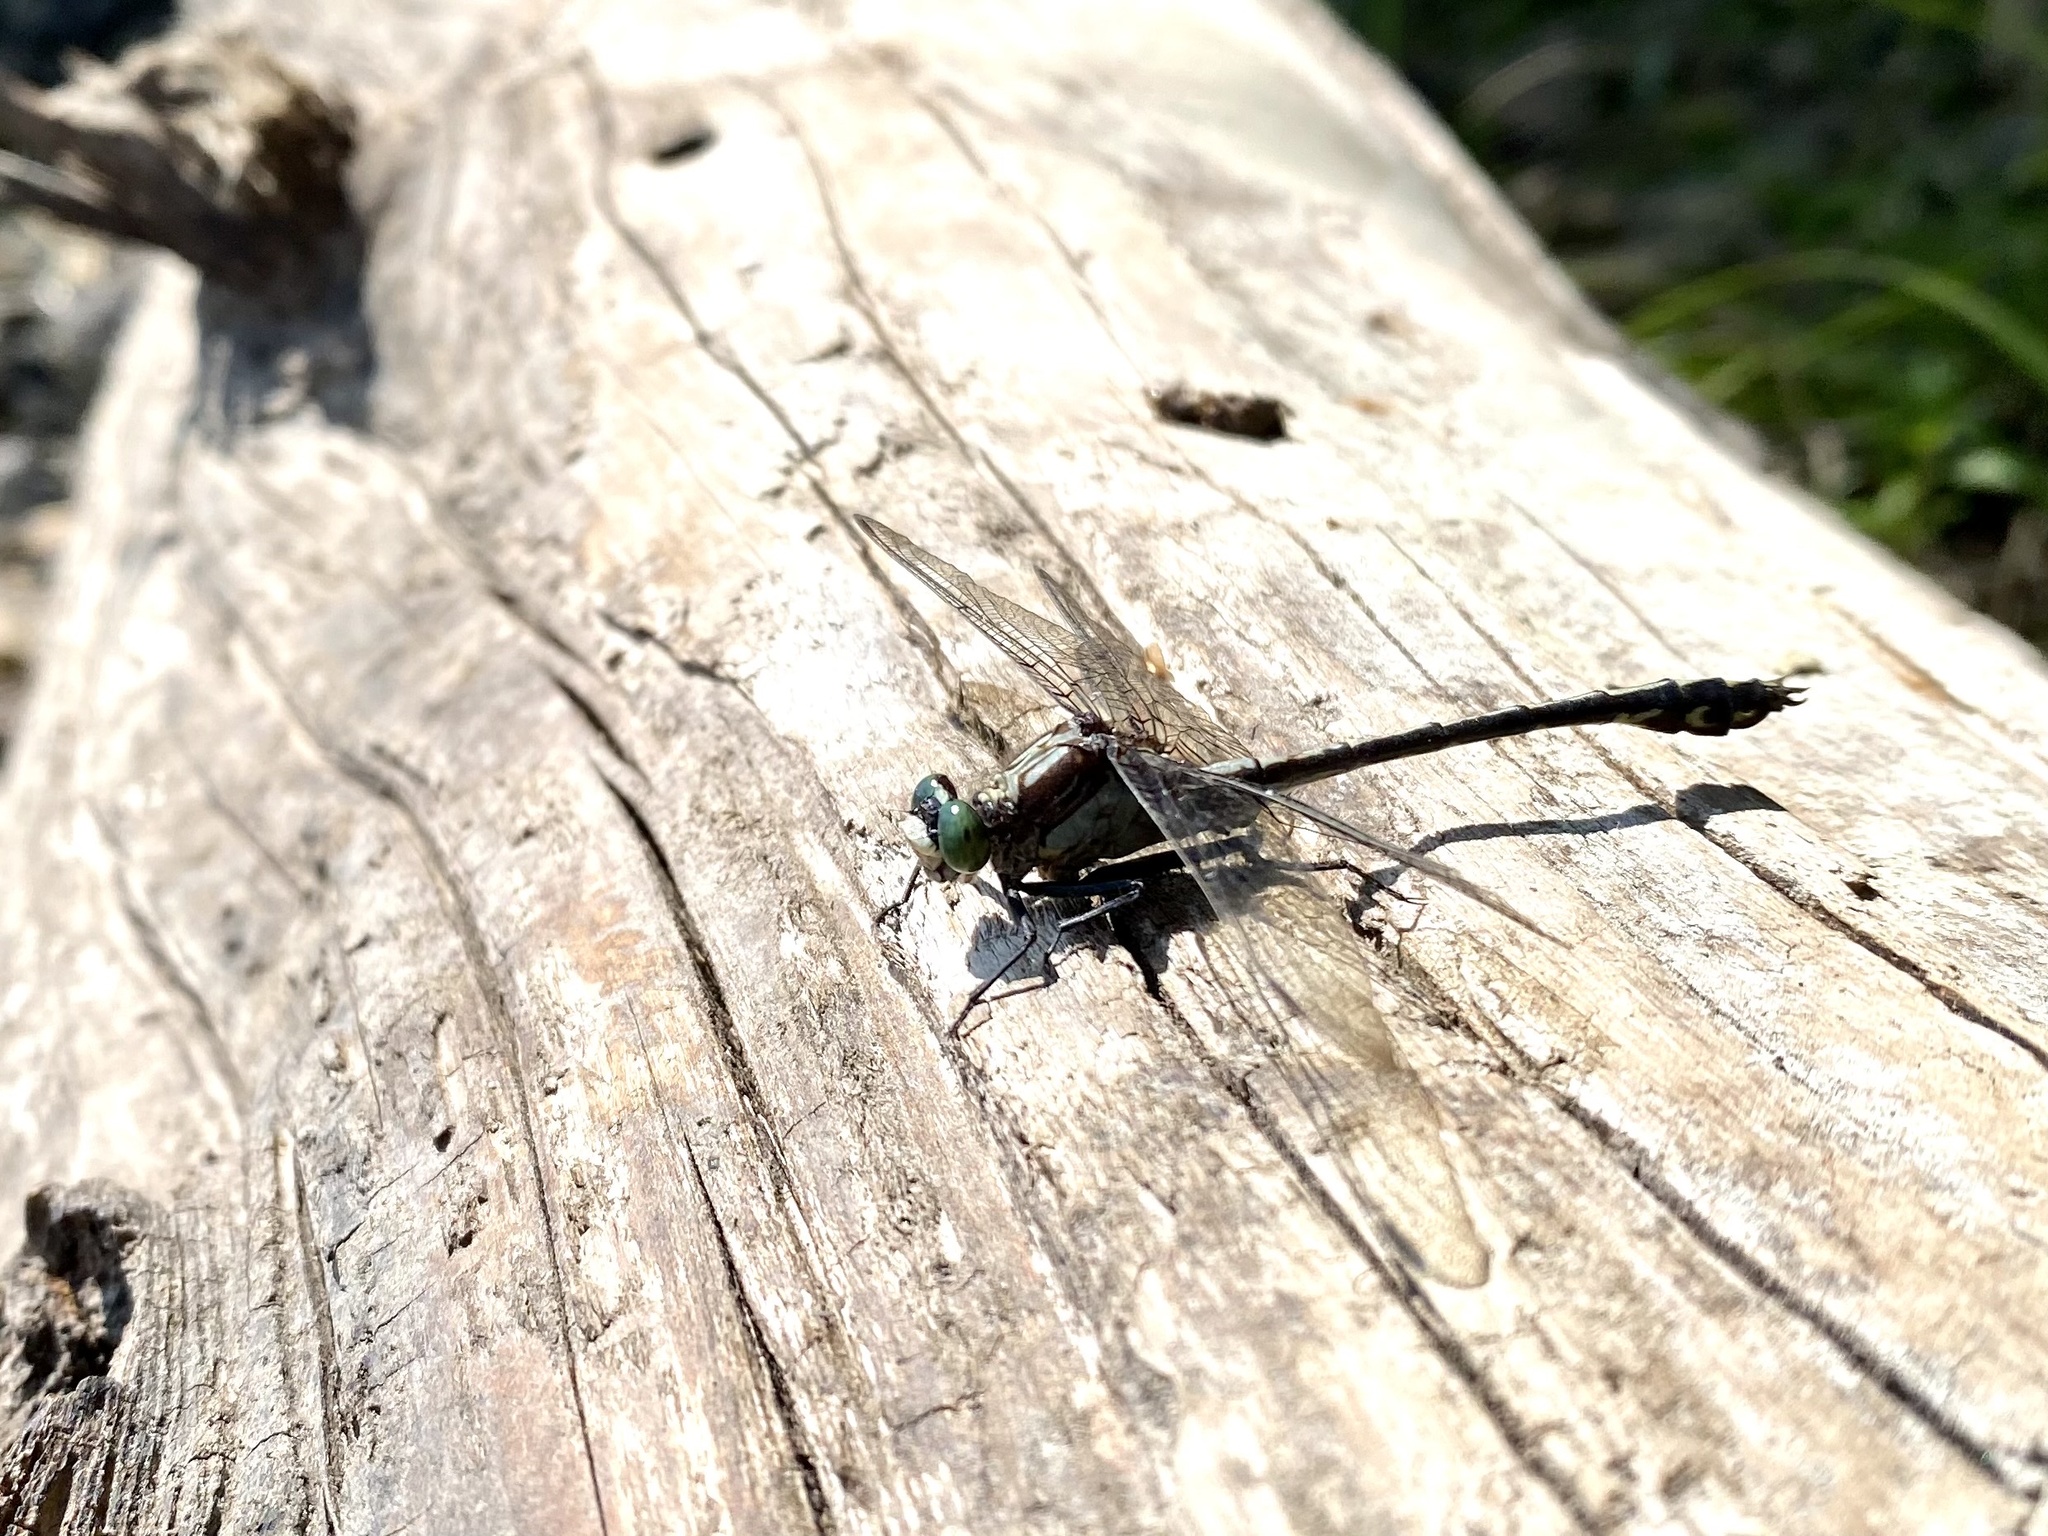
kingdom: Animalia
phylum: Arthropoda
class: Insecta
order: Odonata
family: Gomphidae
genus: Dromogomphus
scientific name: Dromogomphus spinosus
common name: Black-shouldered spinyleg
